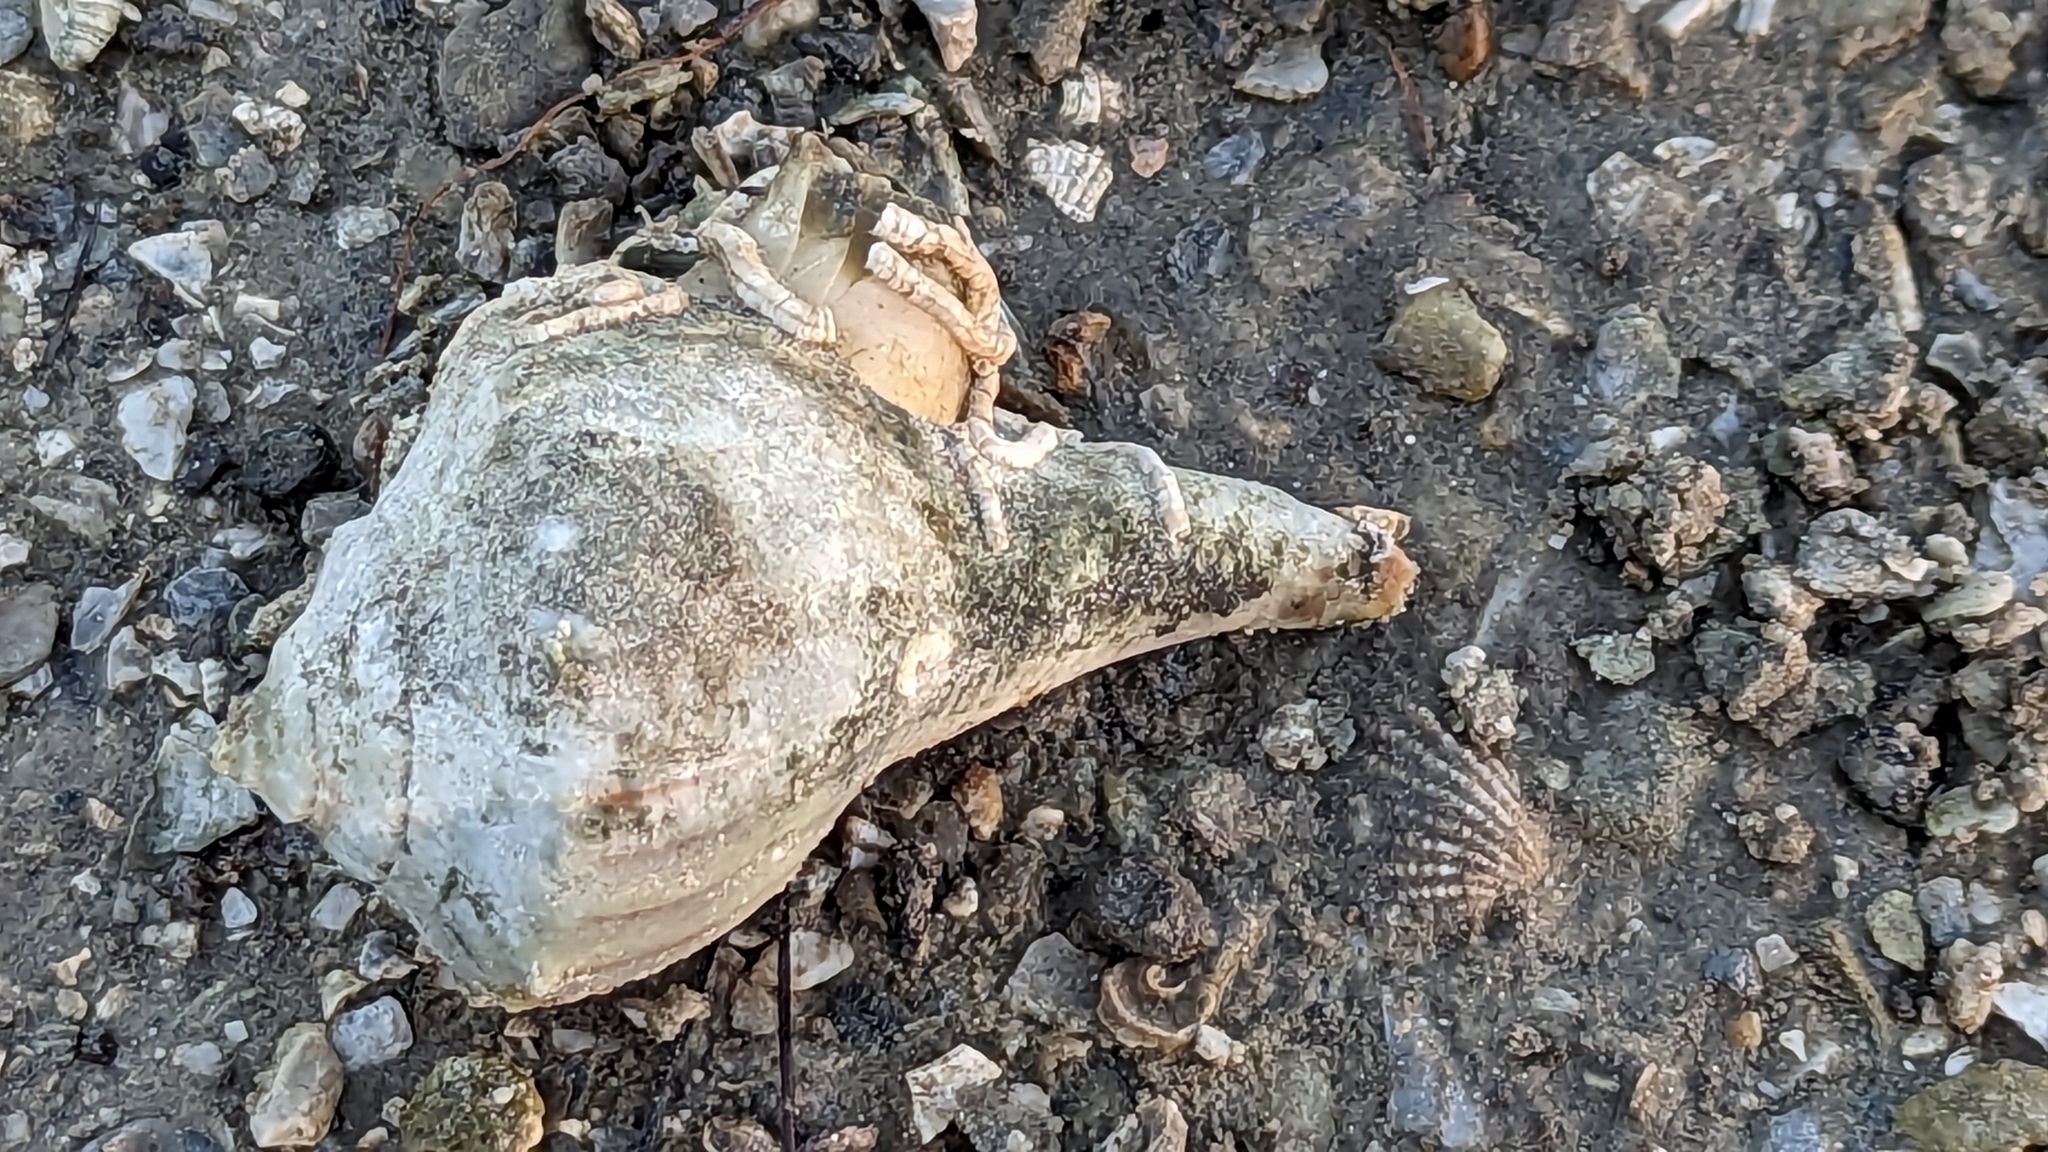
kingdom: Animalia
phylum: Mollusca
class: Gastropoda
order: Neogastropoda
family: Busyconidae
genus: Sinistrofulgur
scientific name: Sinistrofulgur pulleyi
